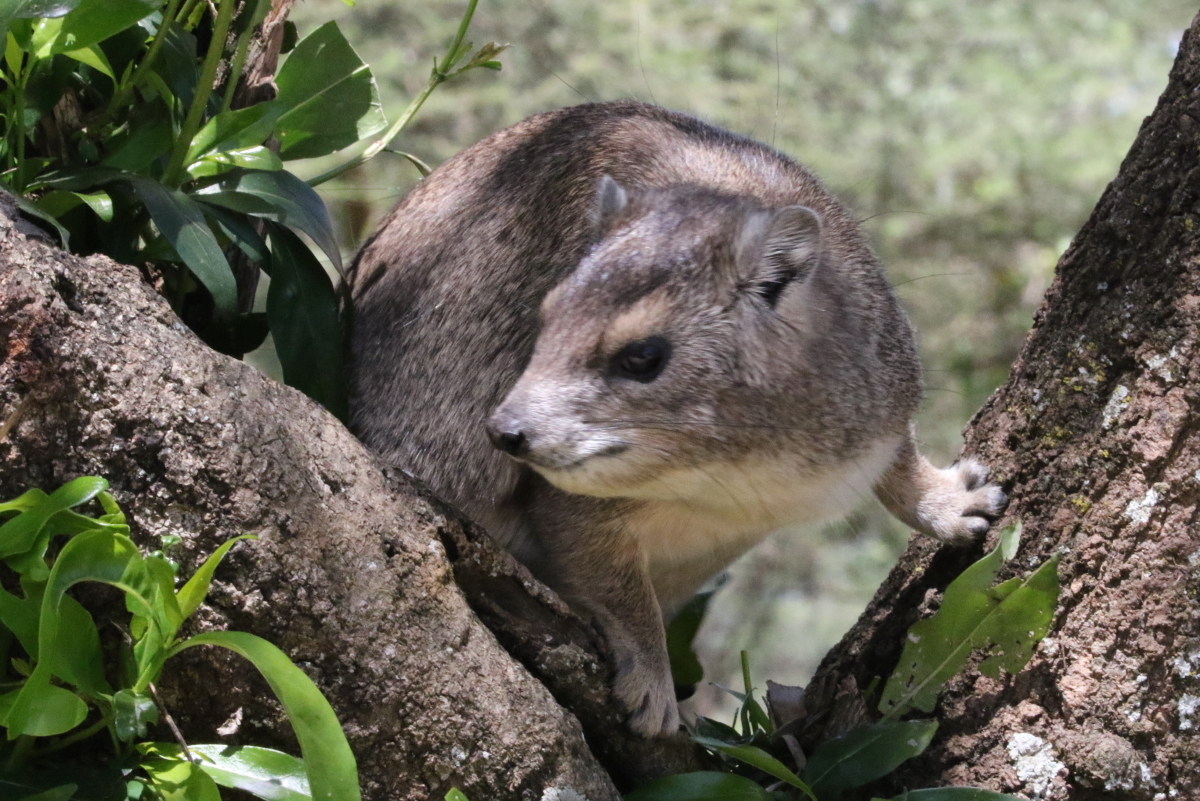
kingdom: Animalia
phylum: Chordata
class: Mammalia
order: Hyracoidea
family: Procaviidae
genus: Heterohyrax
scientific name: Heterohyrax brucei
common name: Bush hyrax
